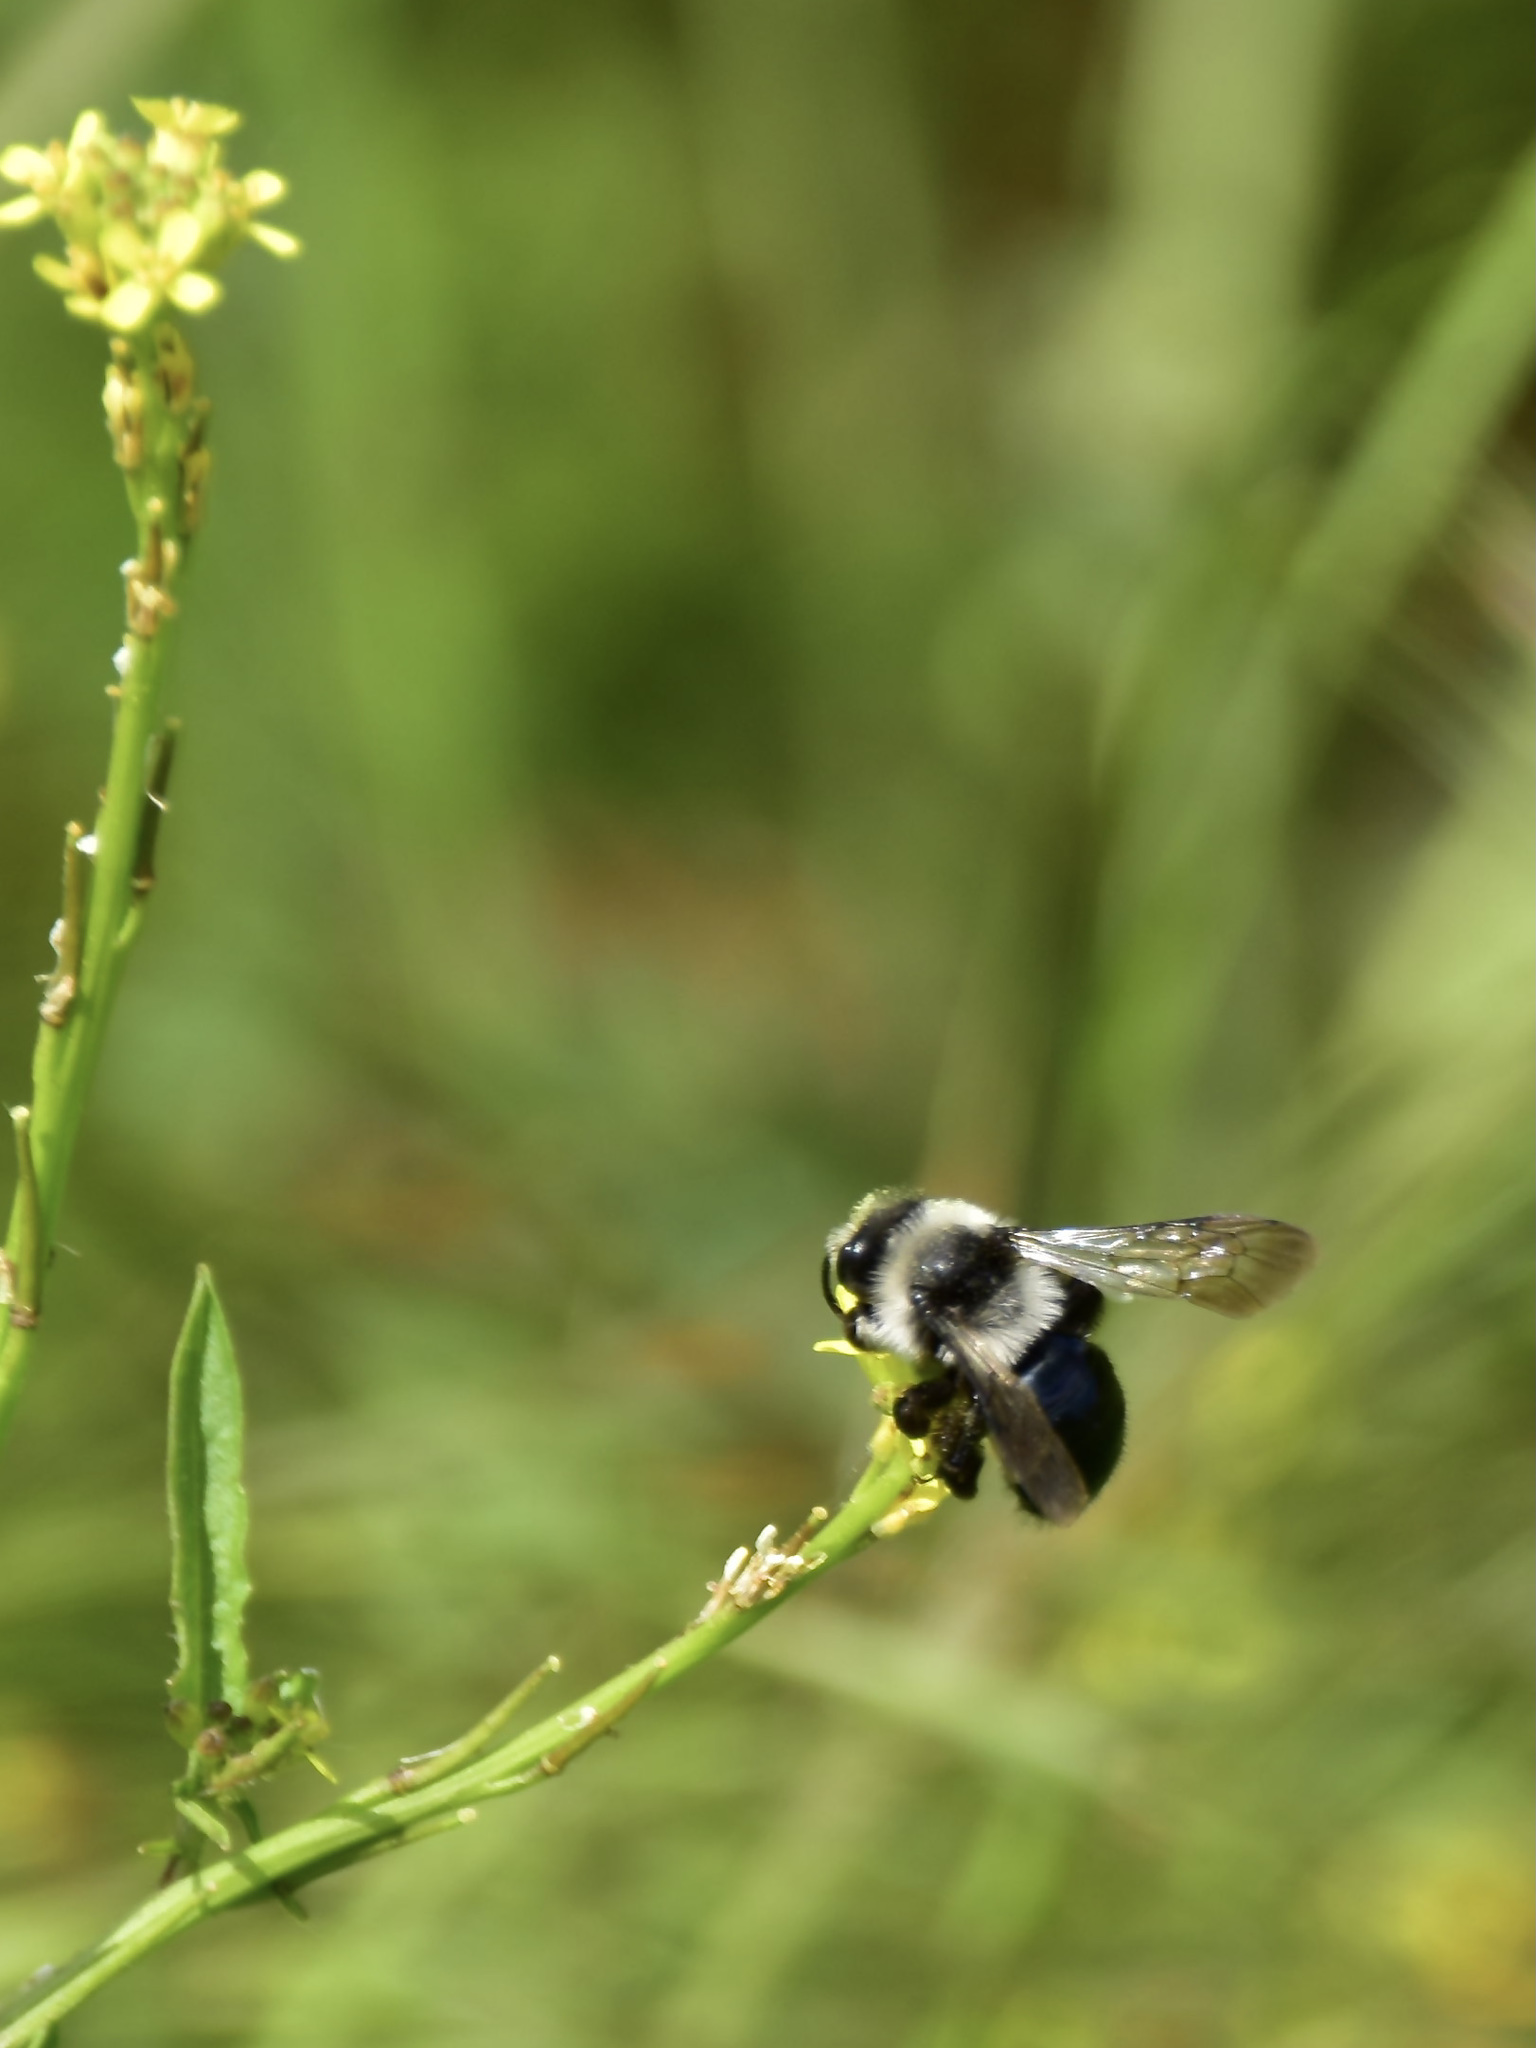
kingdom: Animalia
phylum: Arthropoda
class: Insecta
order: Hymenoptera
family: Andrenidae
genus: Andrena
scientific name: Andrena cineraria
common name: Ashy mining bee
